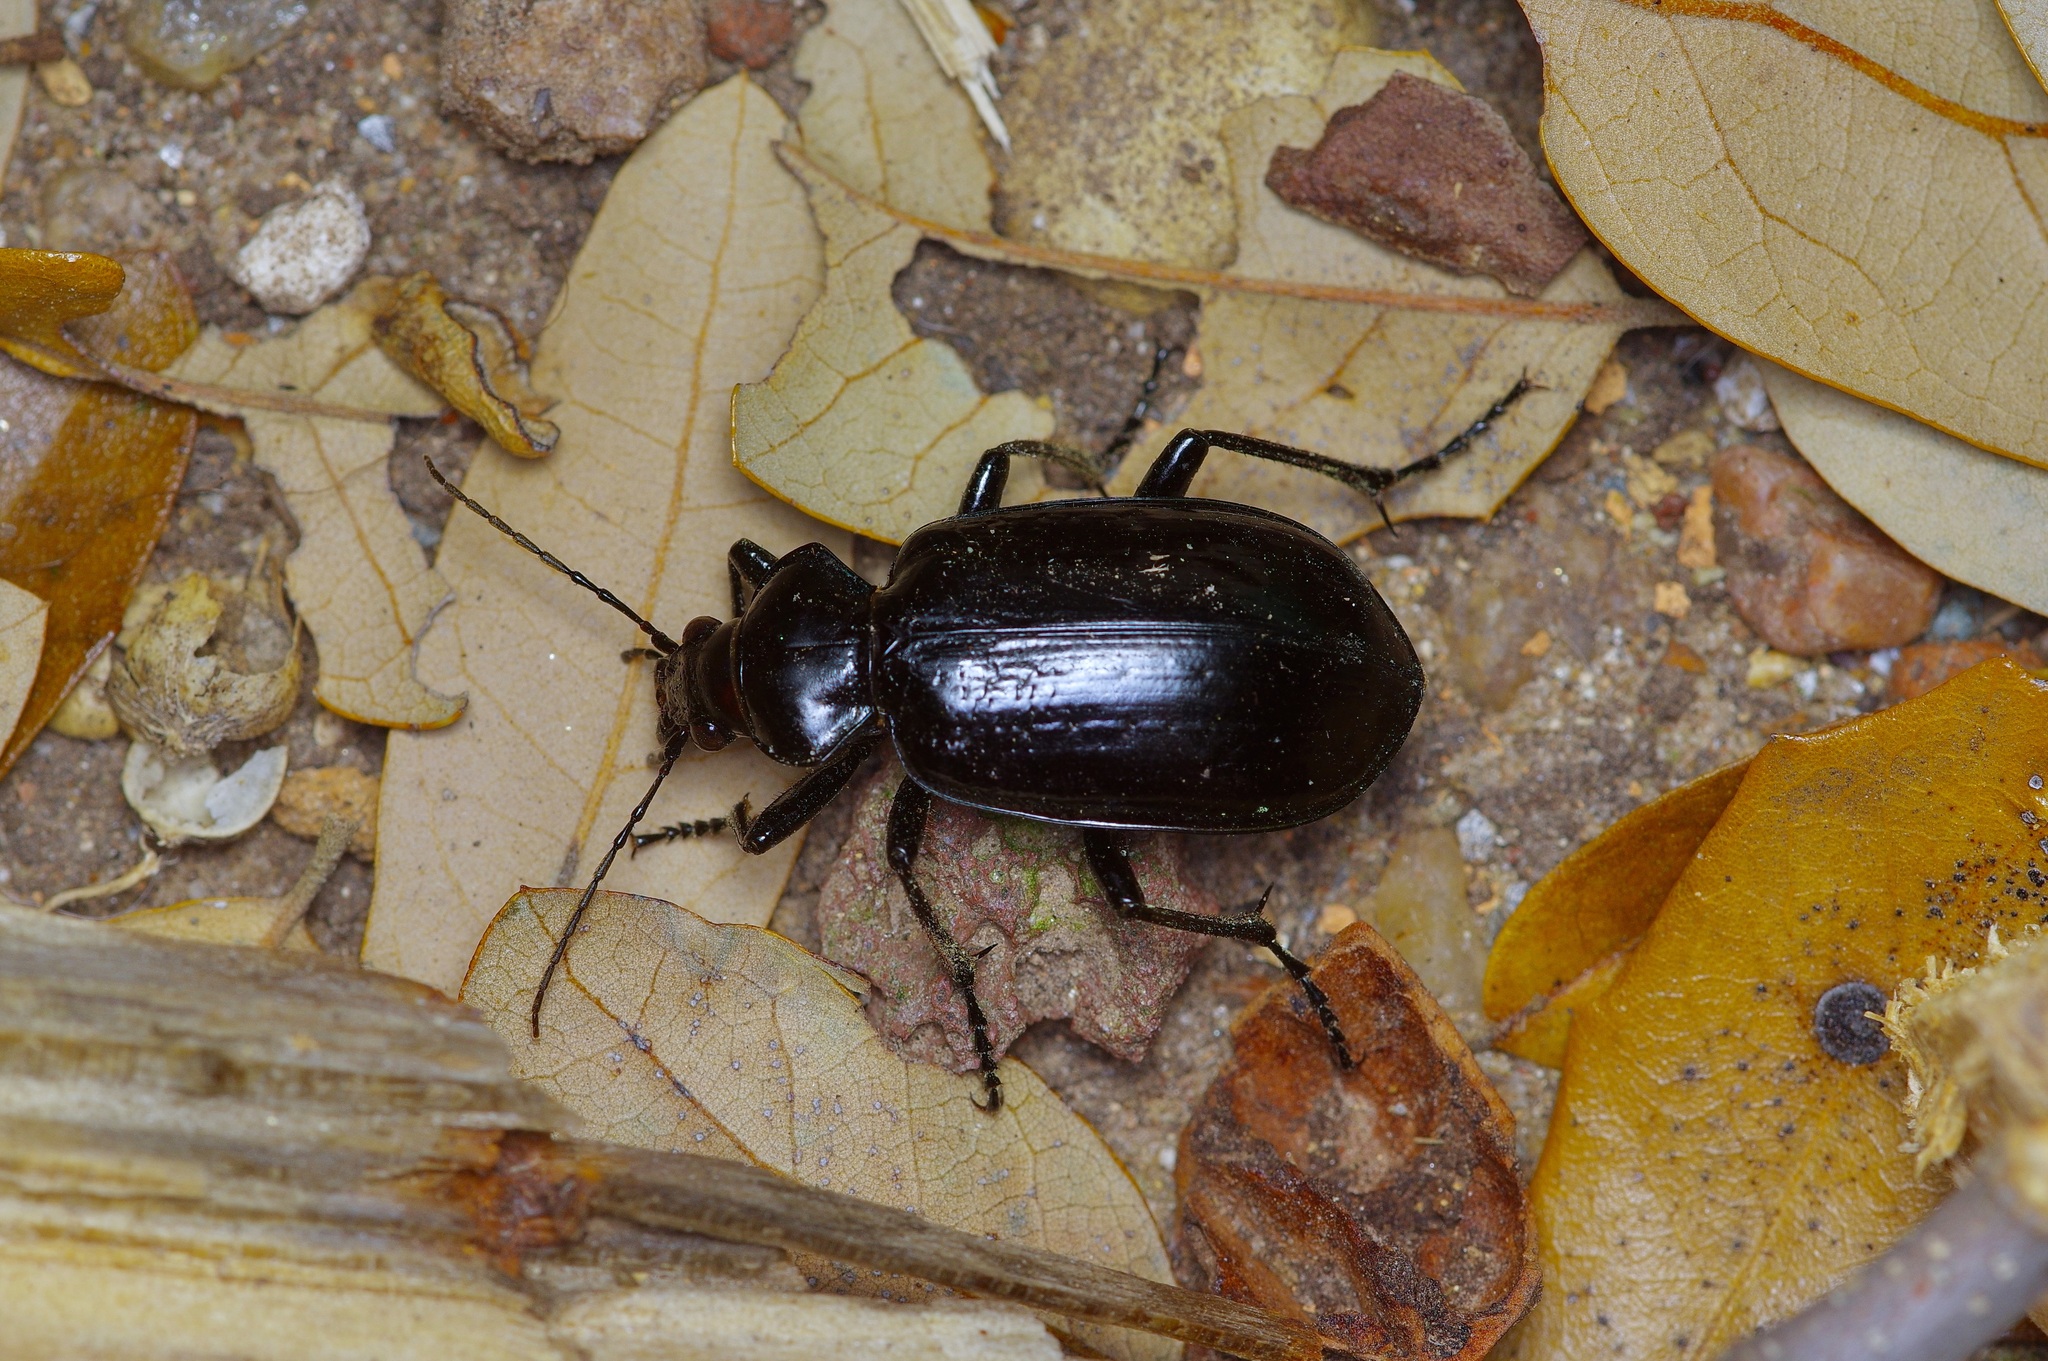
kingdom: Animalia
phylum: Arthropoda
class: Insecta
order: Coleoptera
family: Carabidae
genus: Calosoma
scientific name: Calosoma marginale
